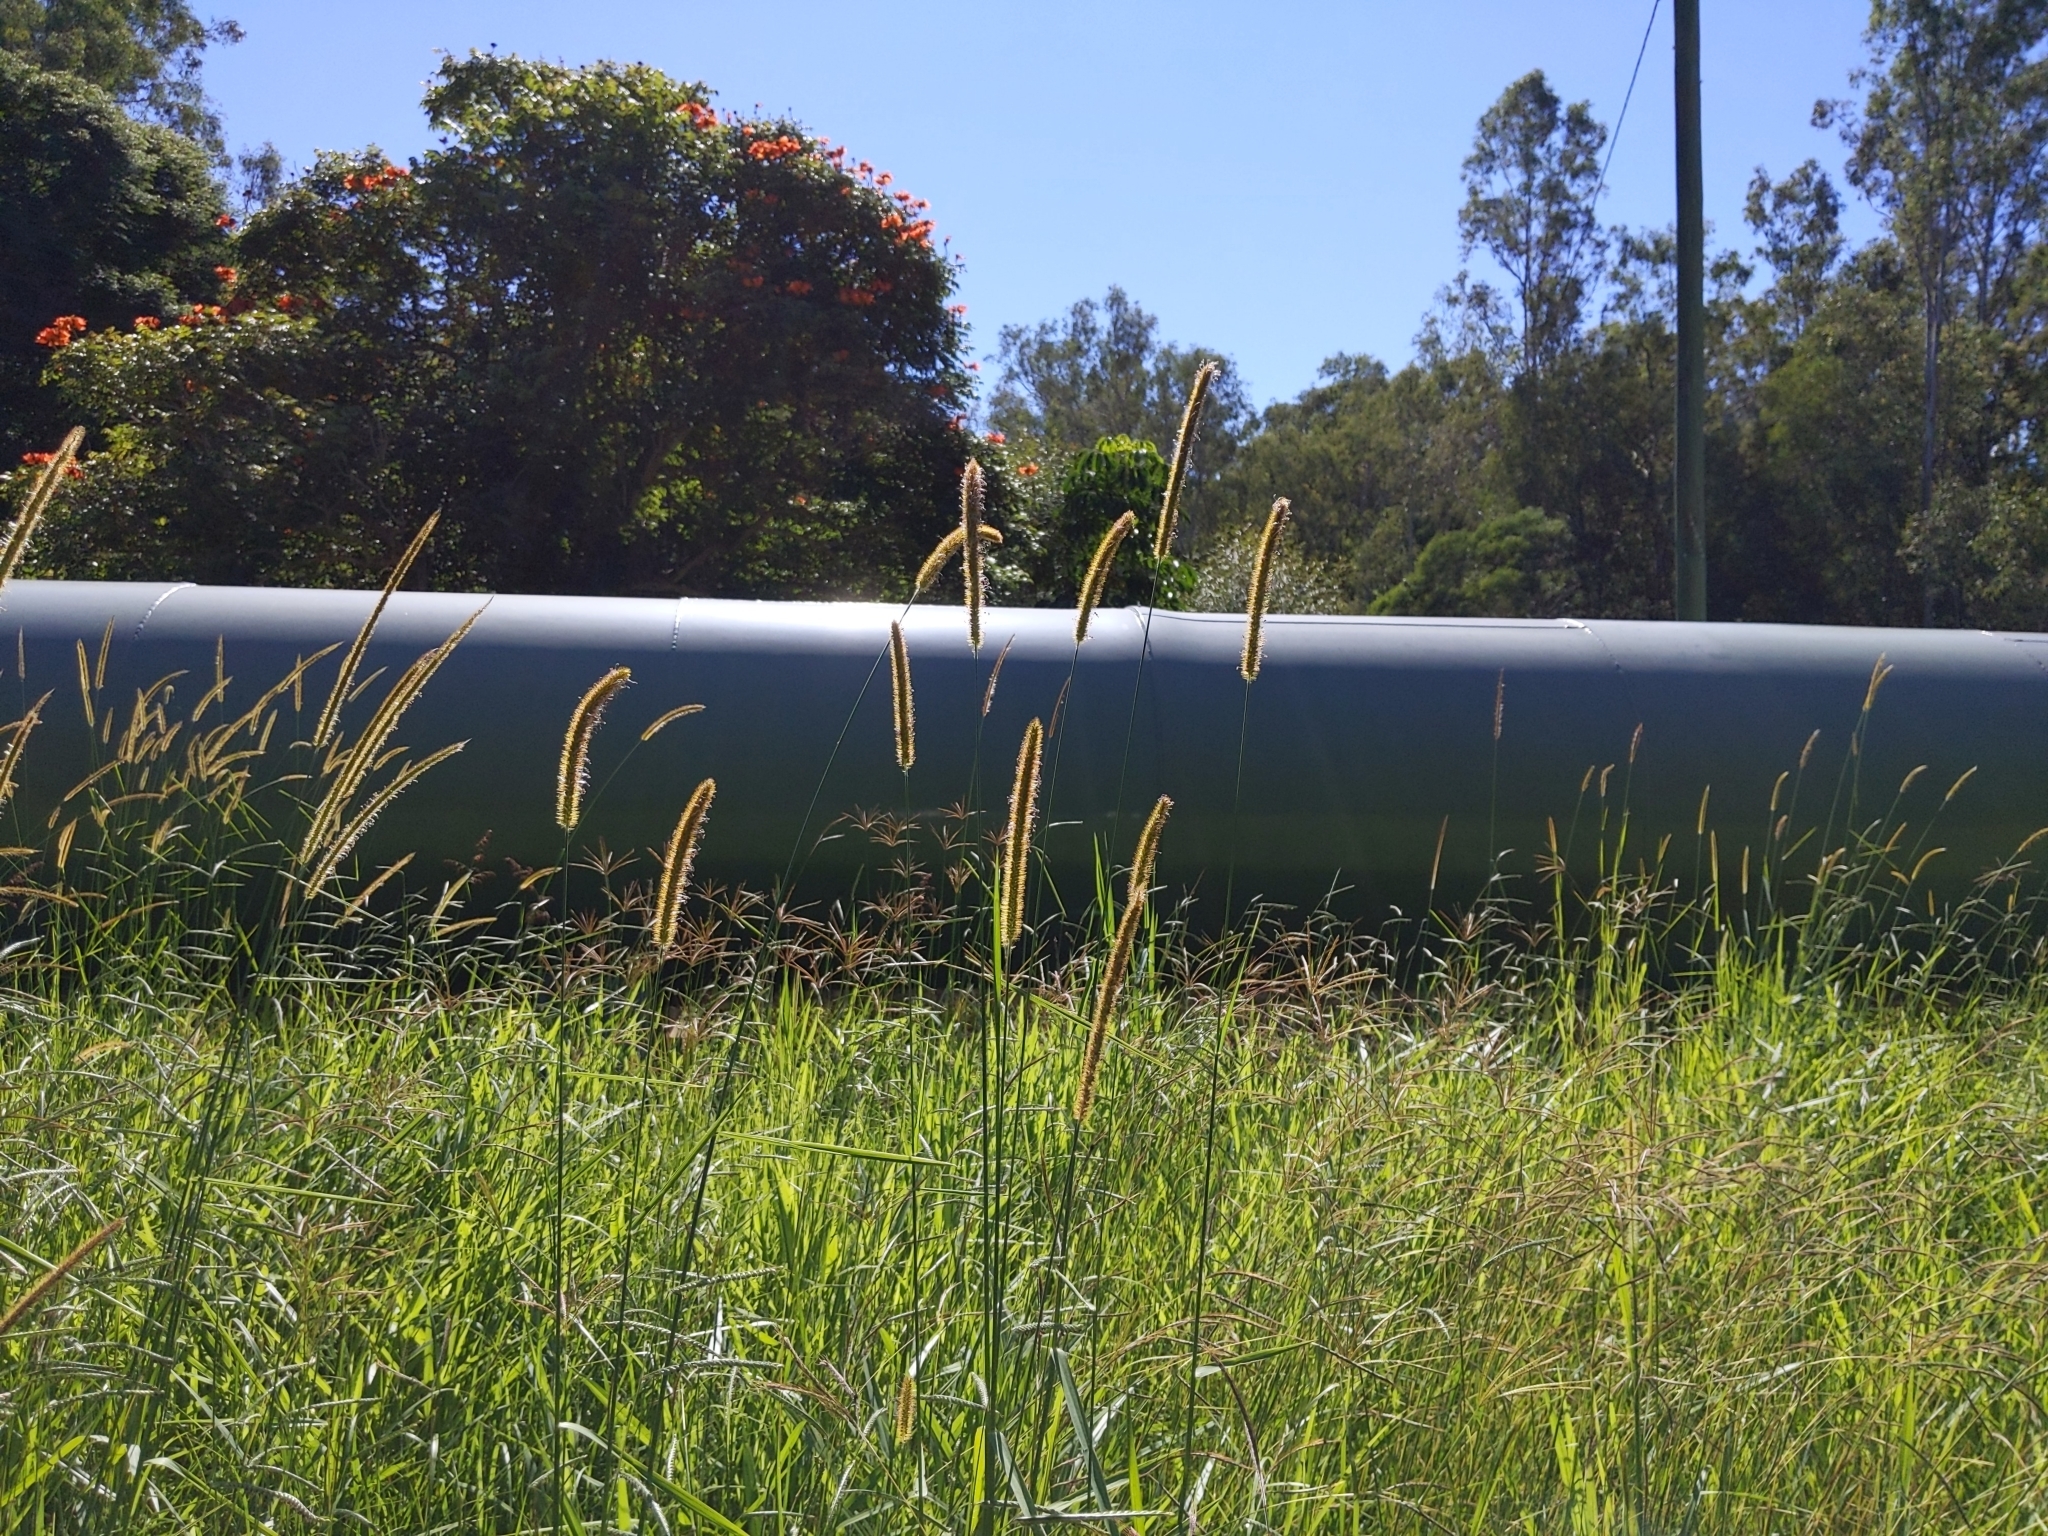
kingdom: Plantae
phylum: Tracheophyta
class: Liliopsida
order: Poales
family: Poaceae
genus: Setaria
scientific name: Setaria sphacelata
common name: African bristlegrass
